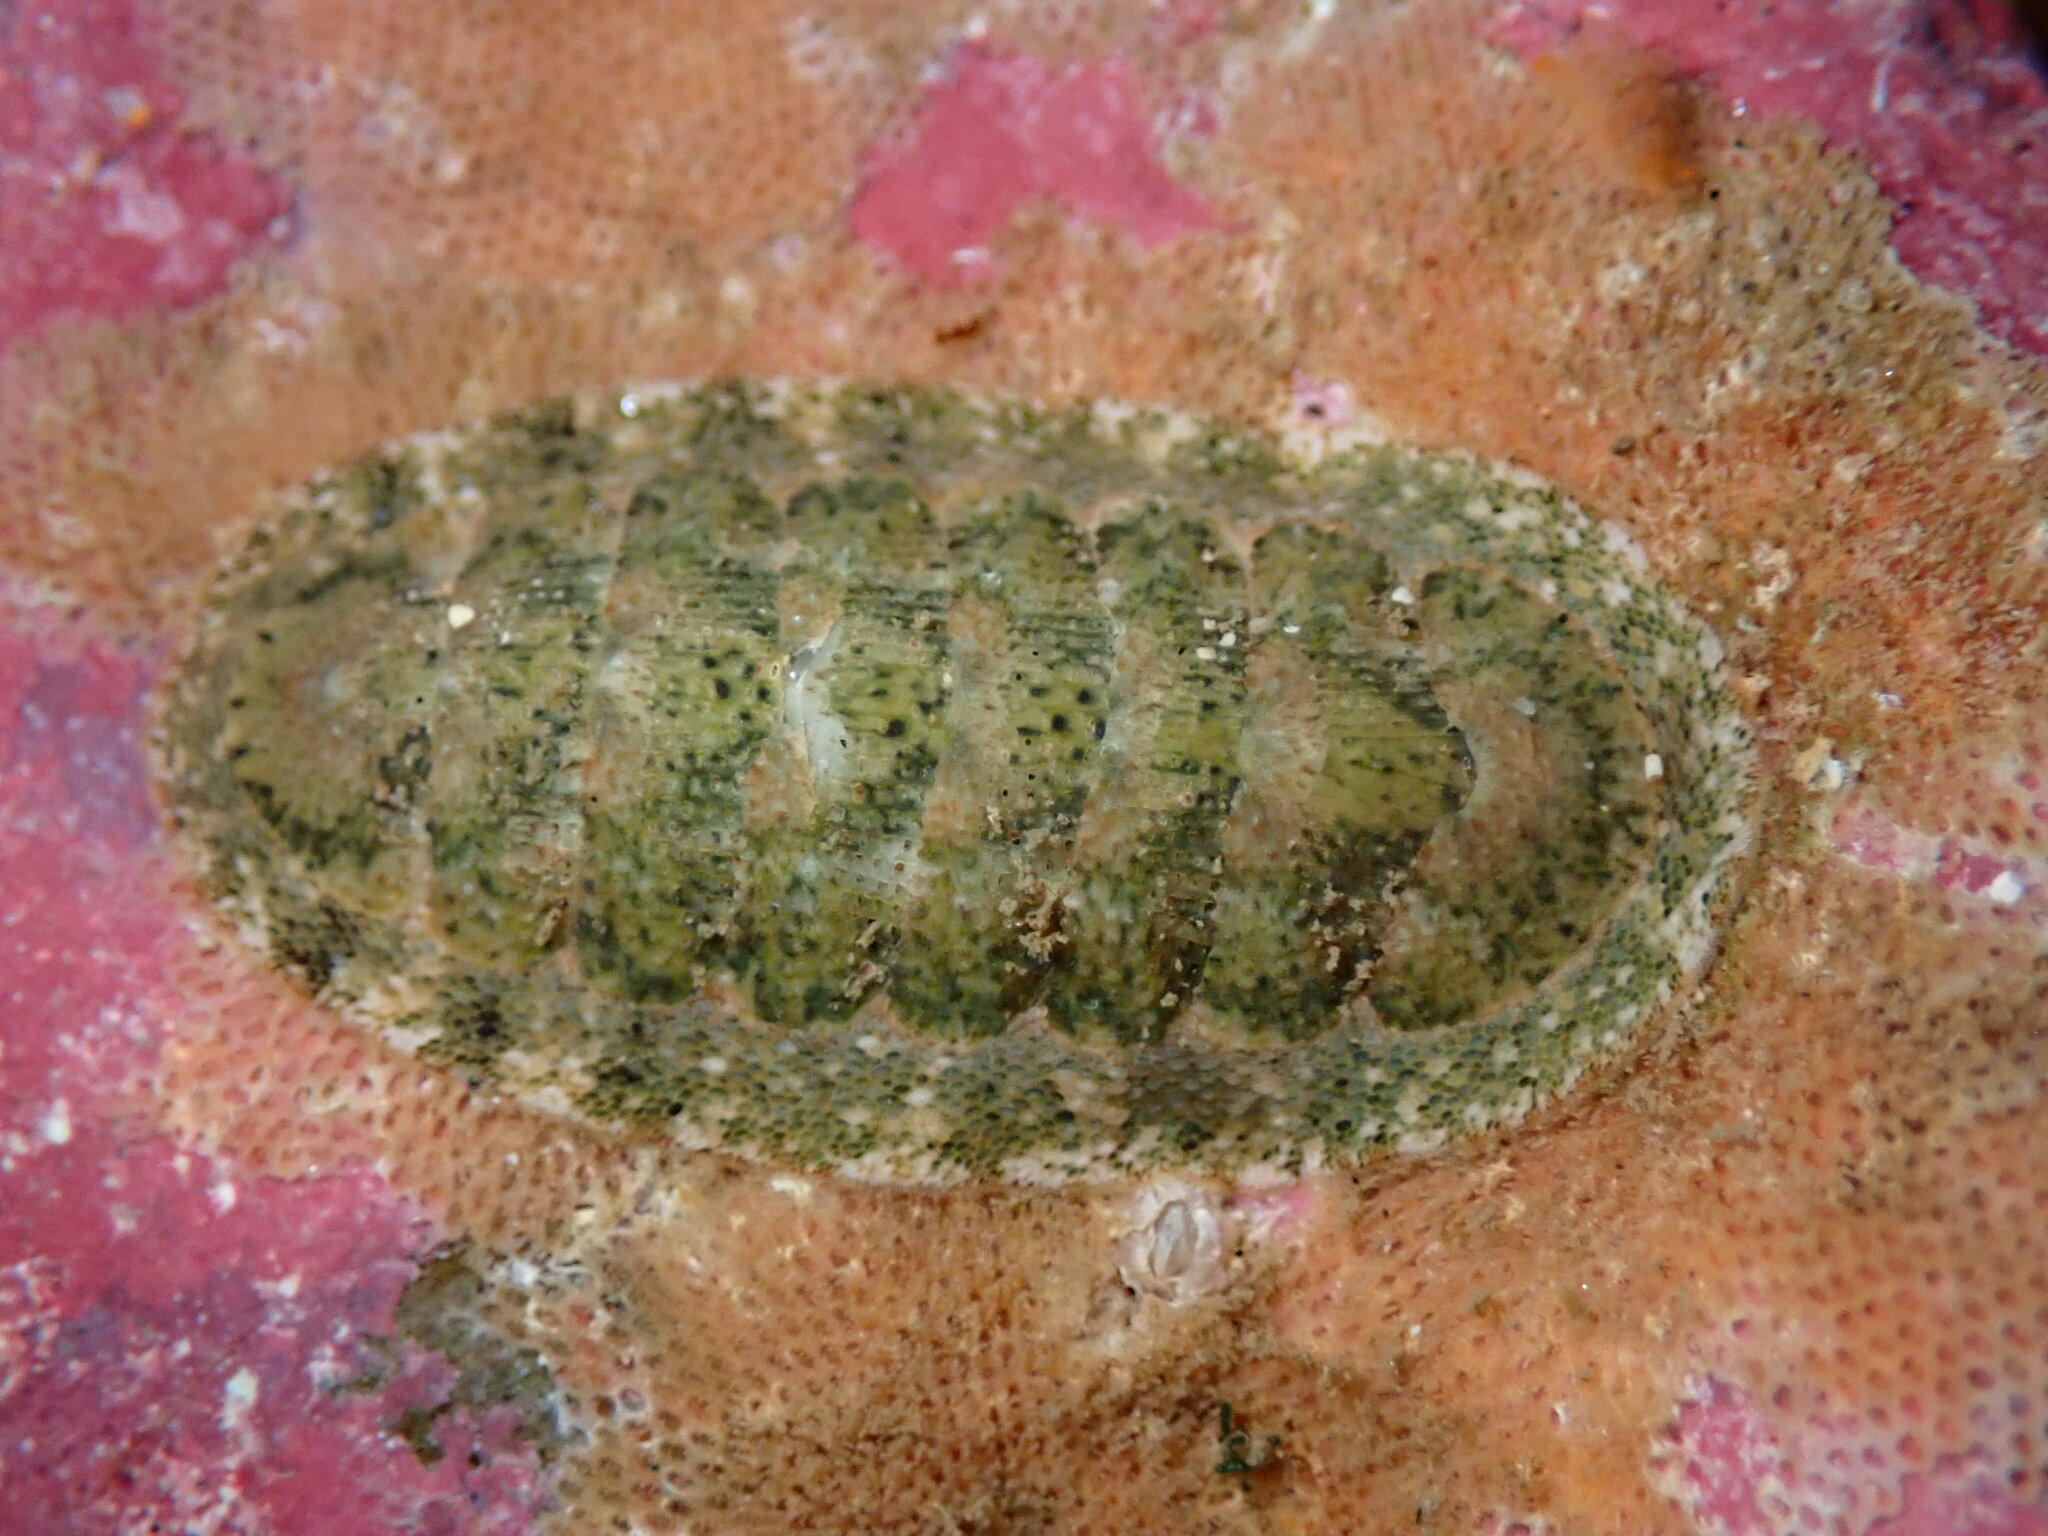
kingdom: Animalia
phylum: Mollusca
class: Polyplacophora
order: Chitonida
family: Ischnochitonidae
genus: Lepidozona
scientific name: Lepidozona pectinulata
